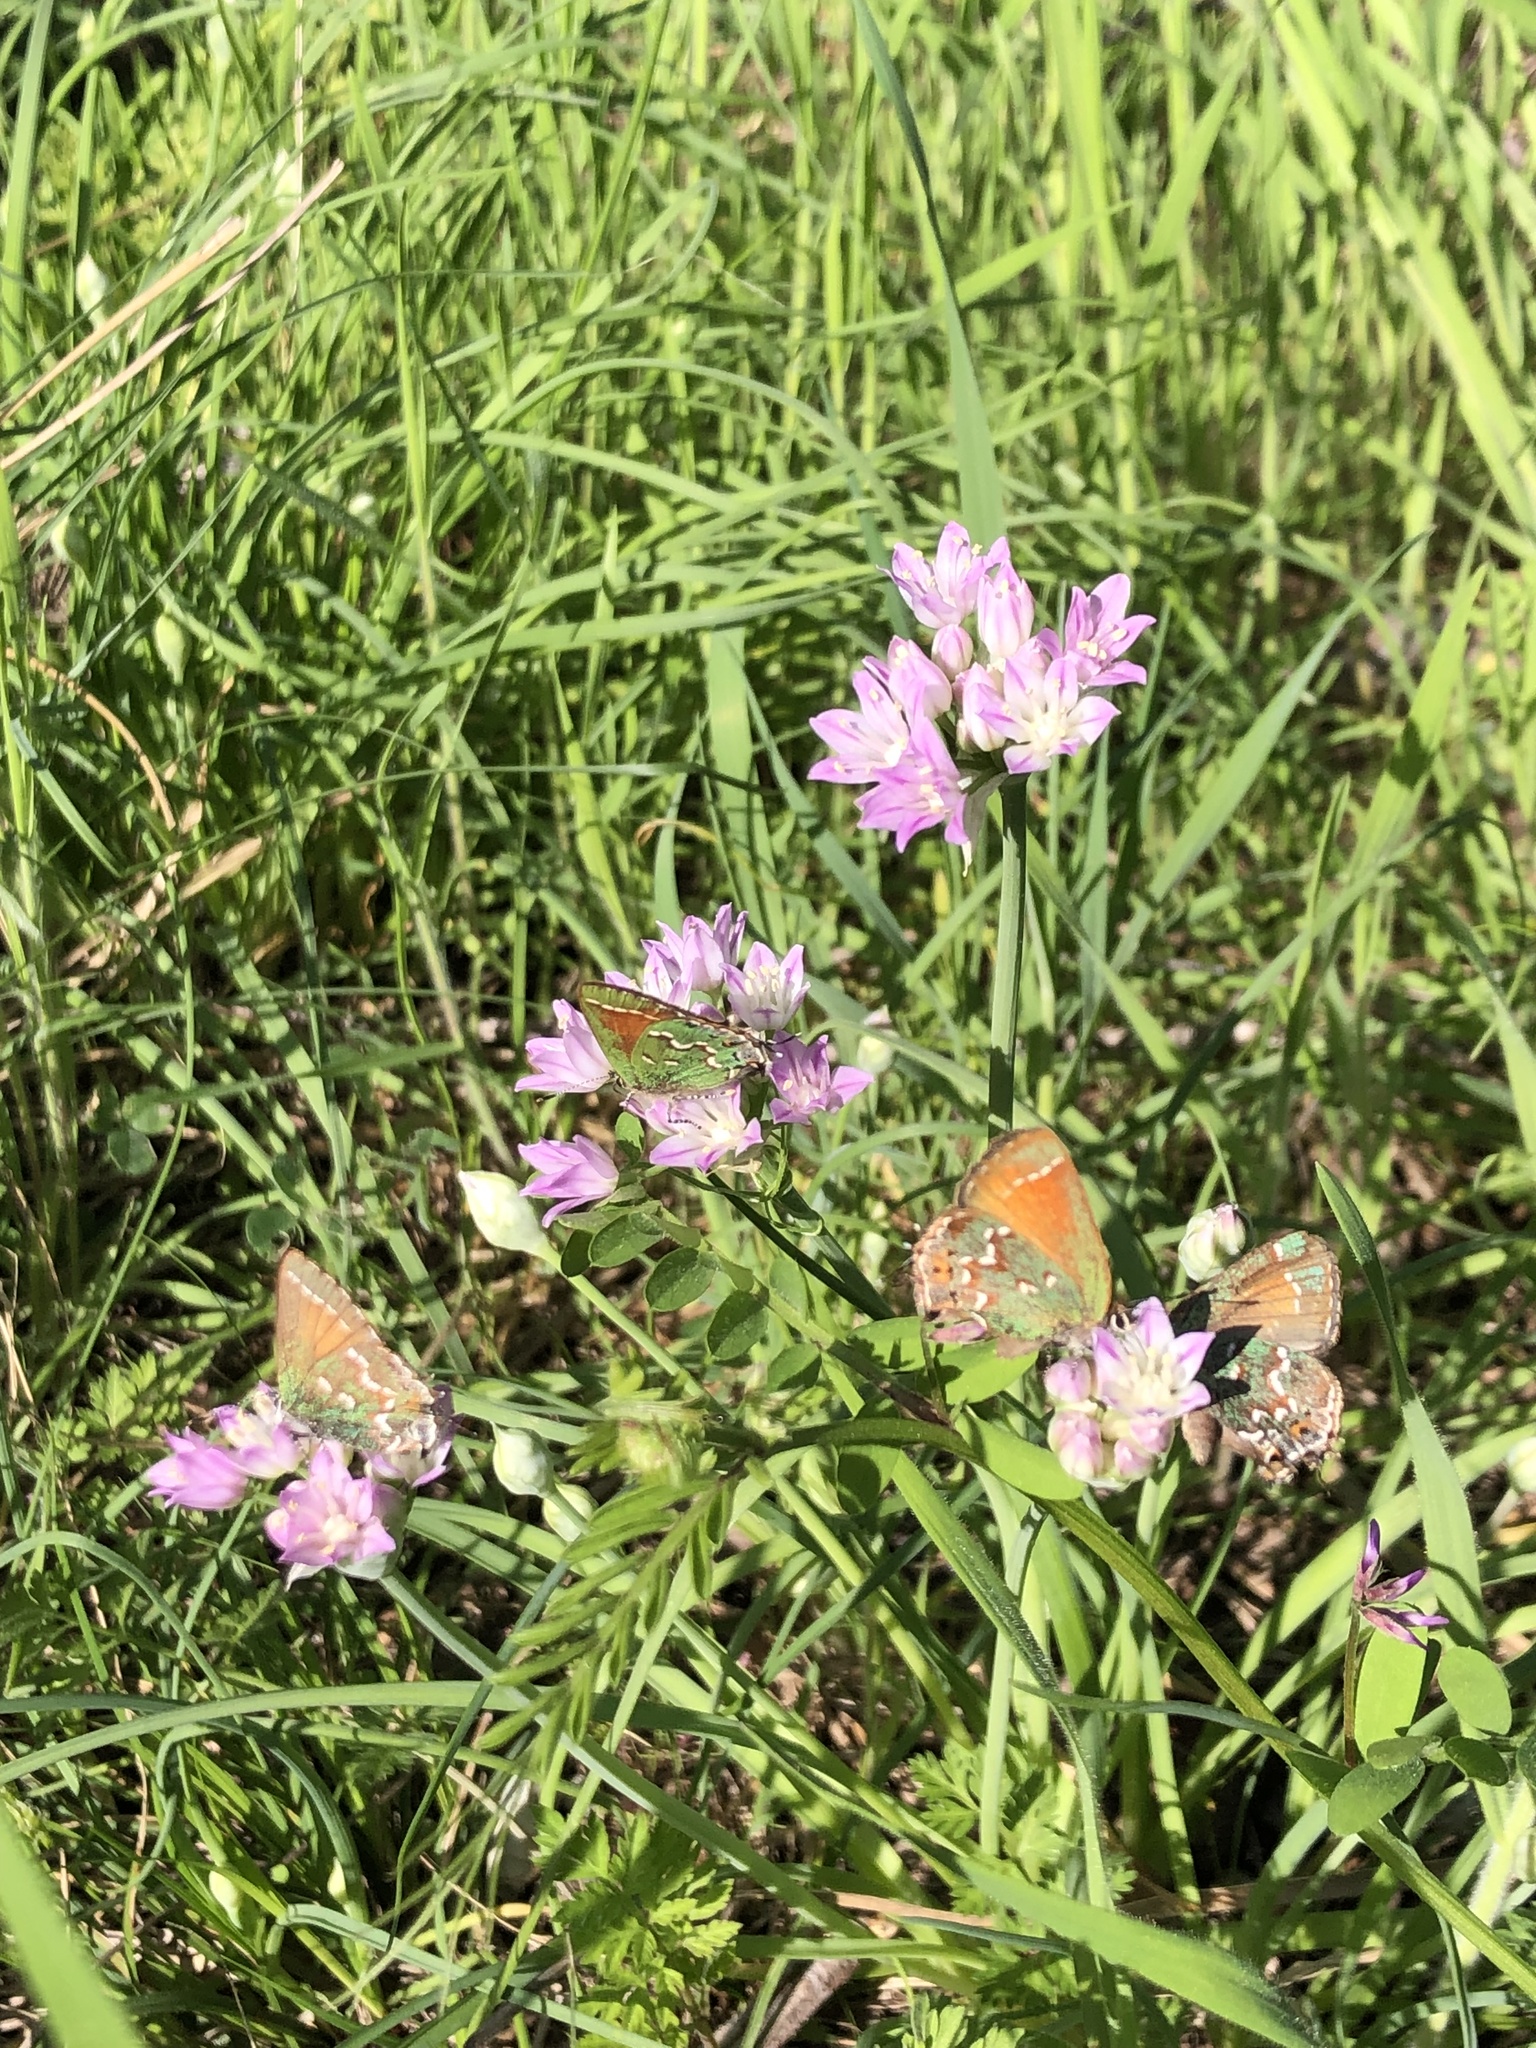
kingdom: Plantae
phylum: Tracheophyta
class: Liliopsida
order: Asparagales
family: Amaryllidaceae
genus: Allium
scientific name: Allium drummondii
